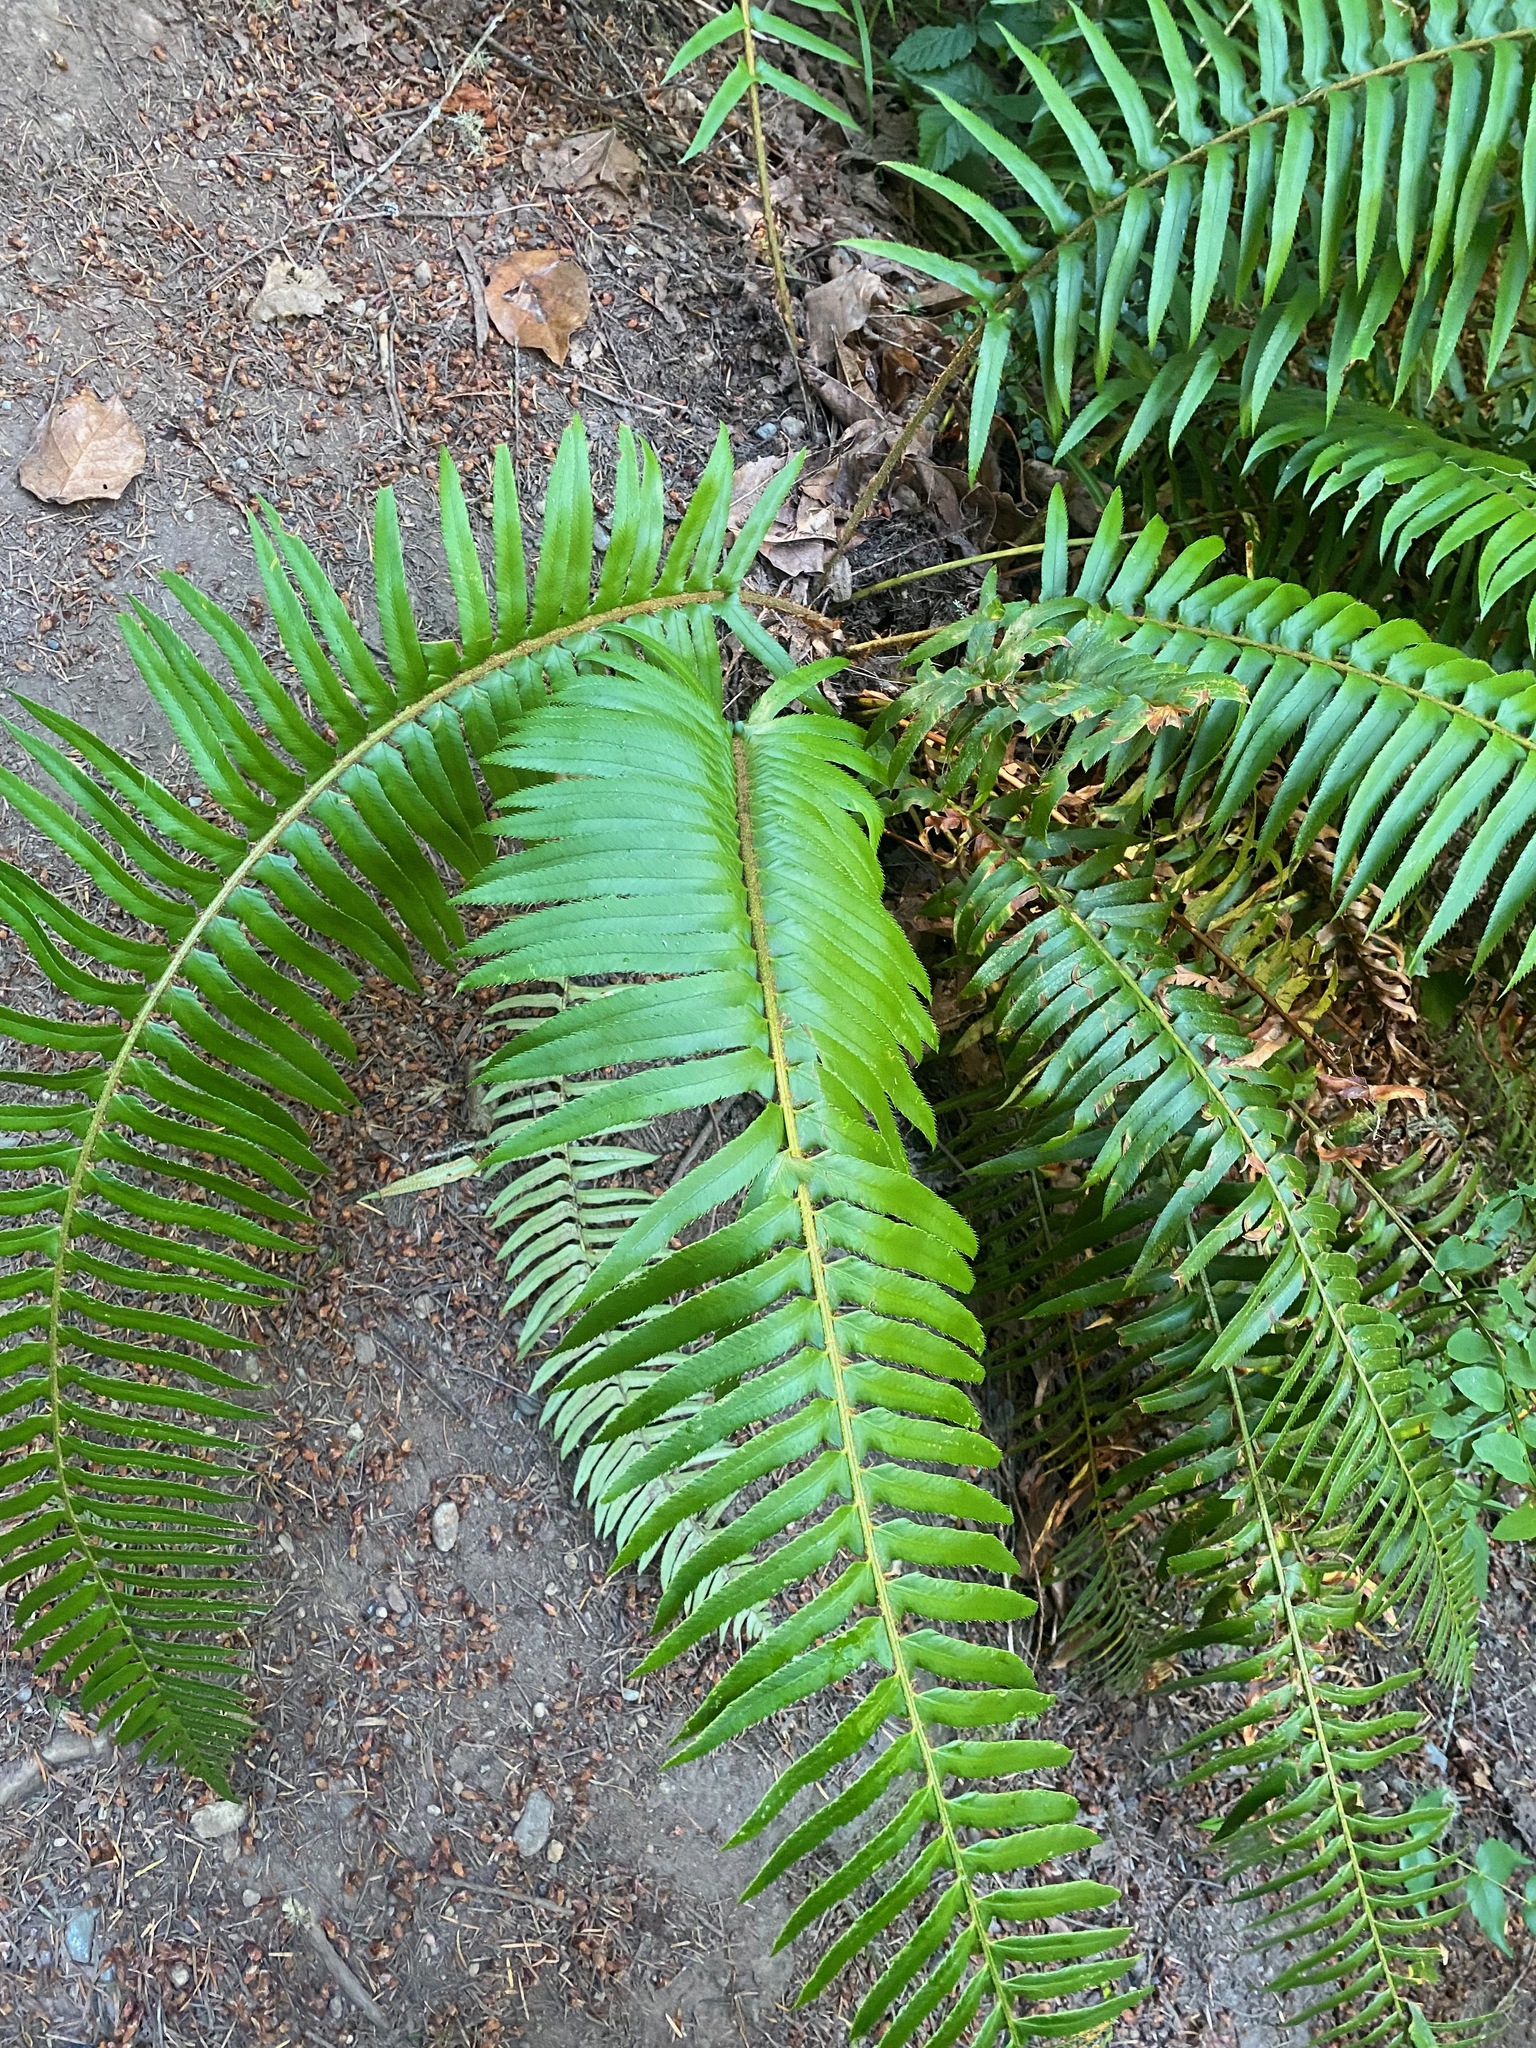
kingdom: Plantae
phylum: Tracheophyta
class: Polypodiopsida
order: Polypodiales
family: Dryopteridaceae
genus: Polystichum
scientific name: Polystichum munitum
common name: Western sword-fern
